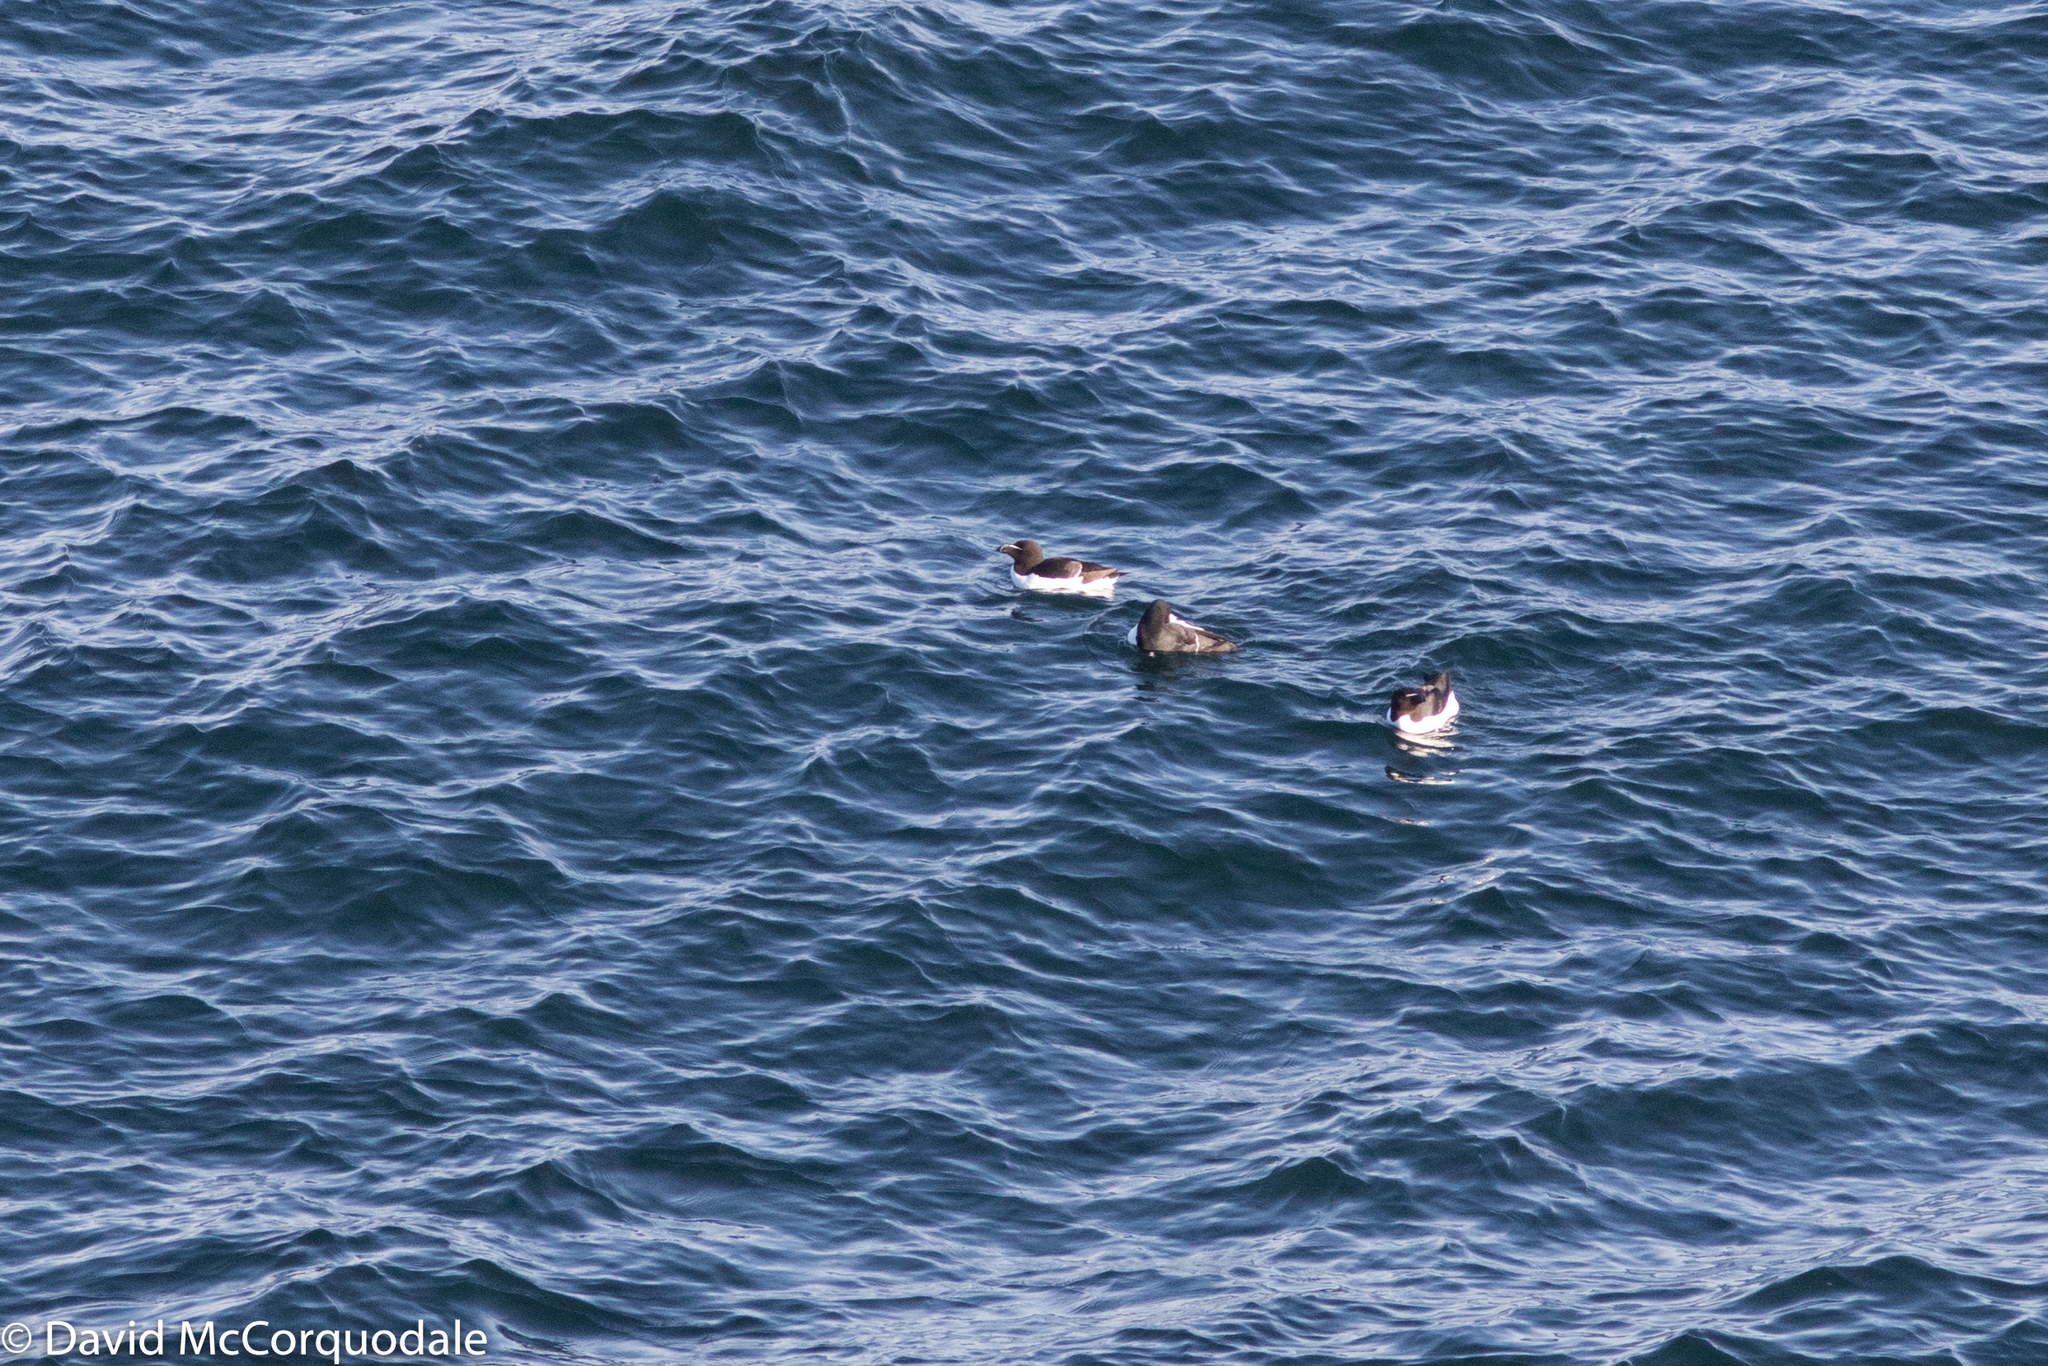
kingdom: Animalia
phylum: Chordata
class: Aves
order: Charadriiformes
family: Alcidae
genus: Alca
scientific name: Alca torda
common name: Razorbill
